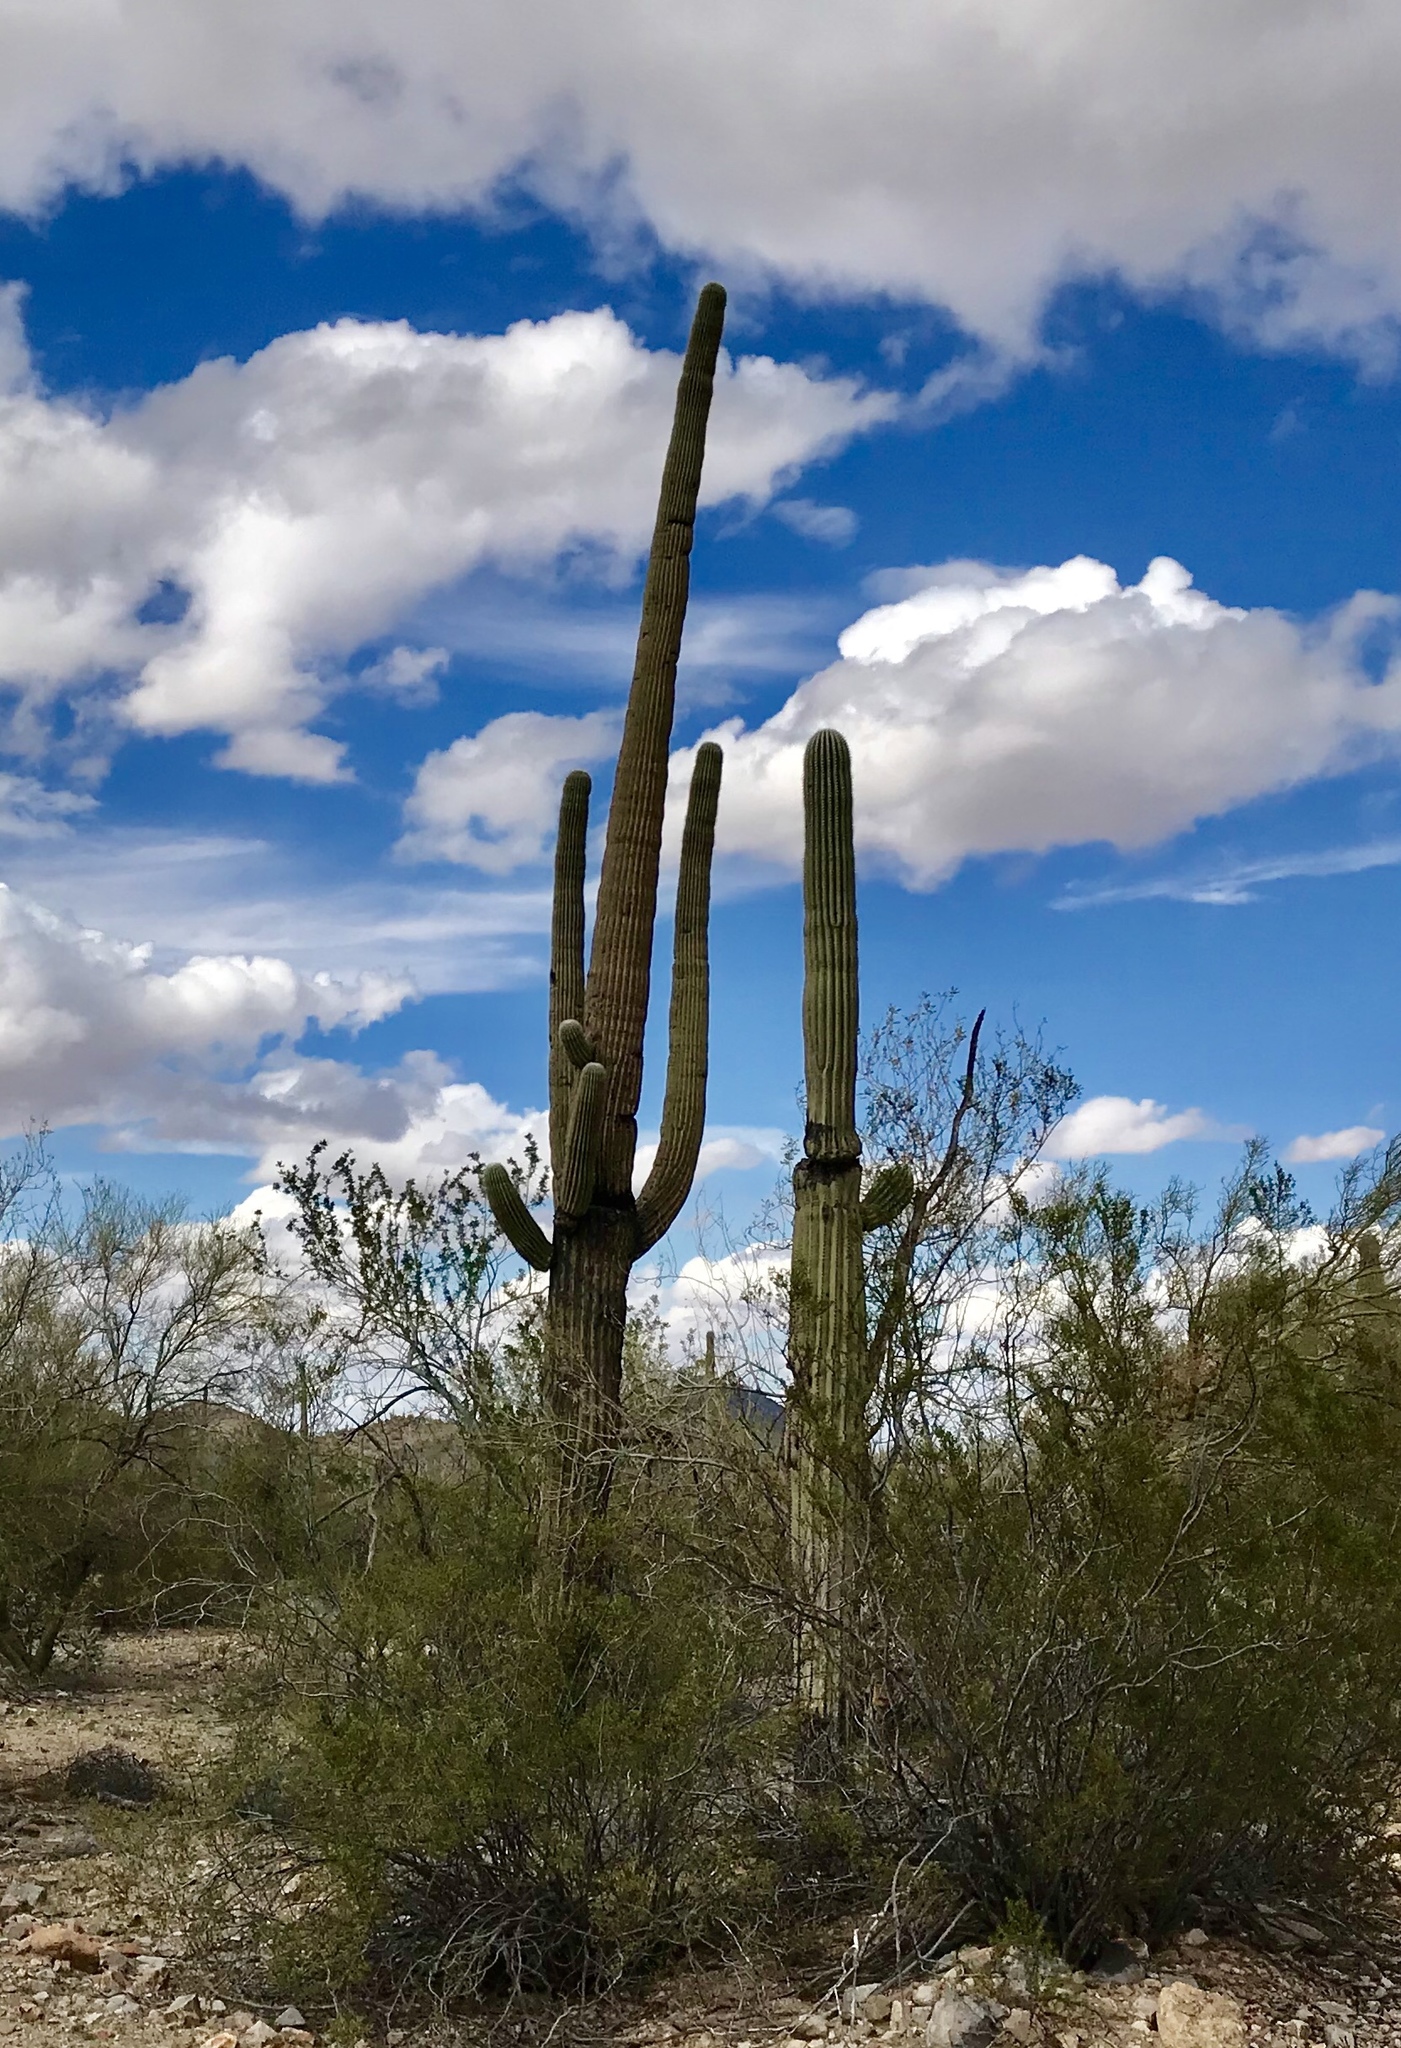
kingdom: Plantae
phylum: Tracheophyta
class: Magnoliopsida
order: Caryophyllales
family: Cactaceae
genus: Carnegiea
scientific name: Carnegiea gigantea
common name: Saguaro
